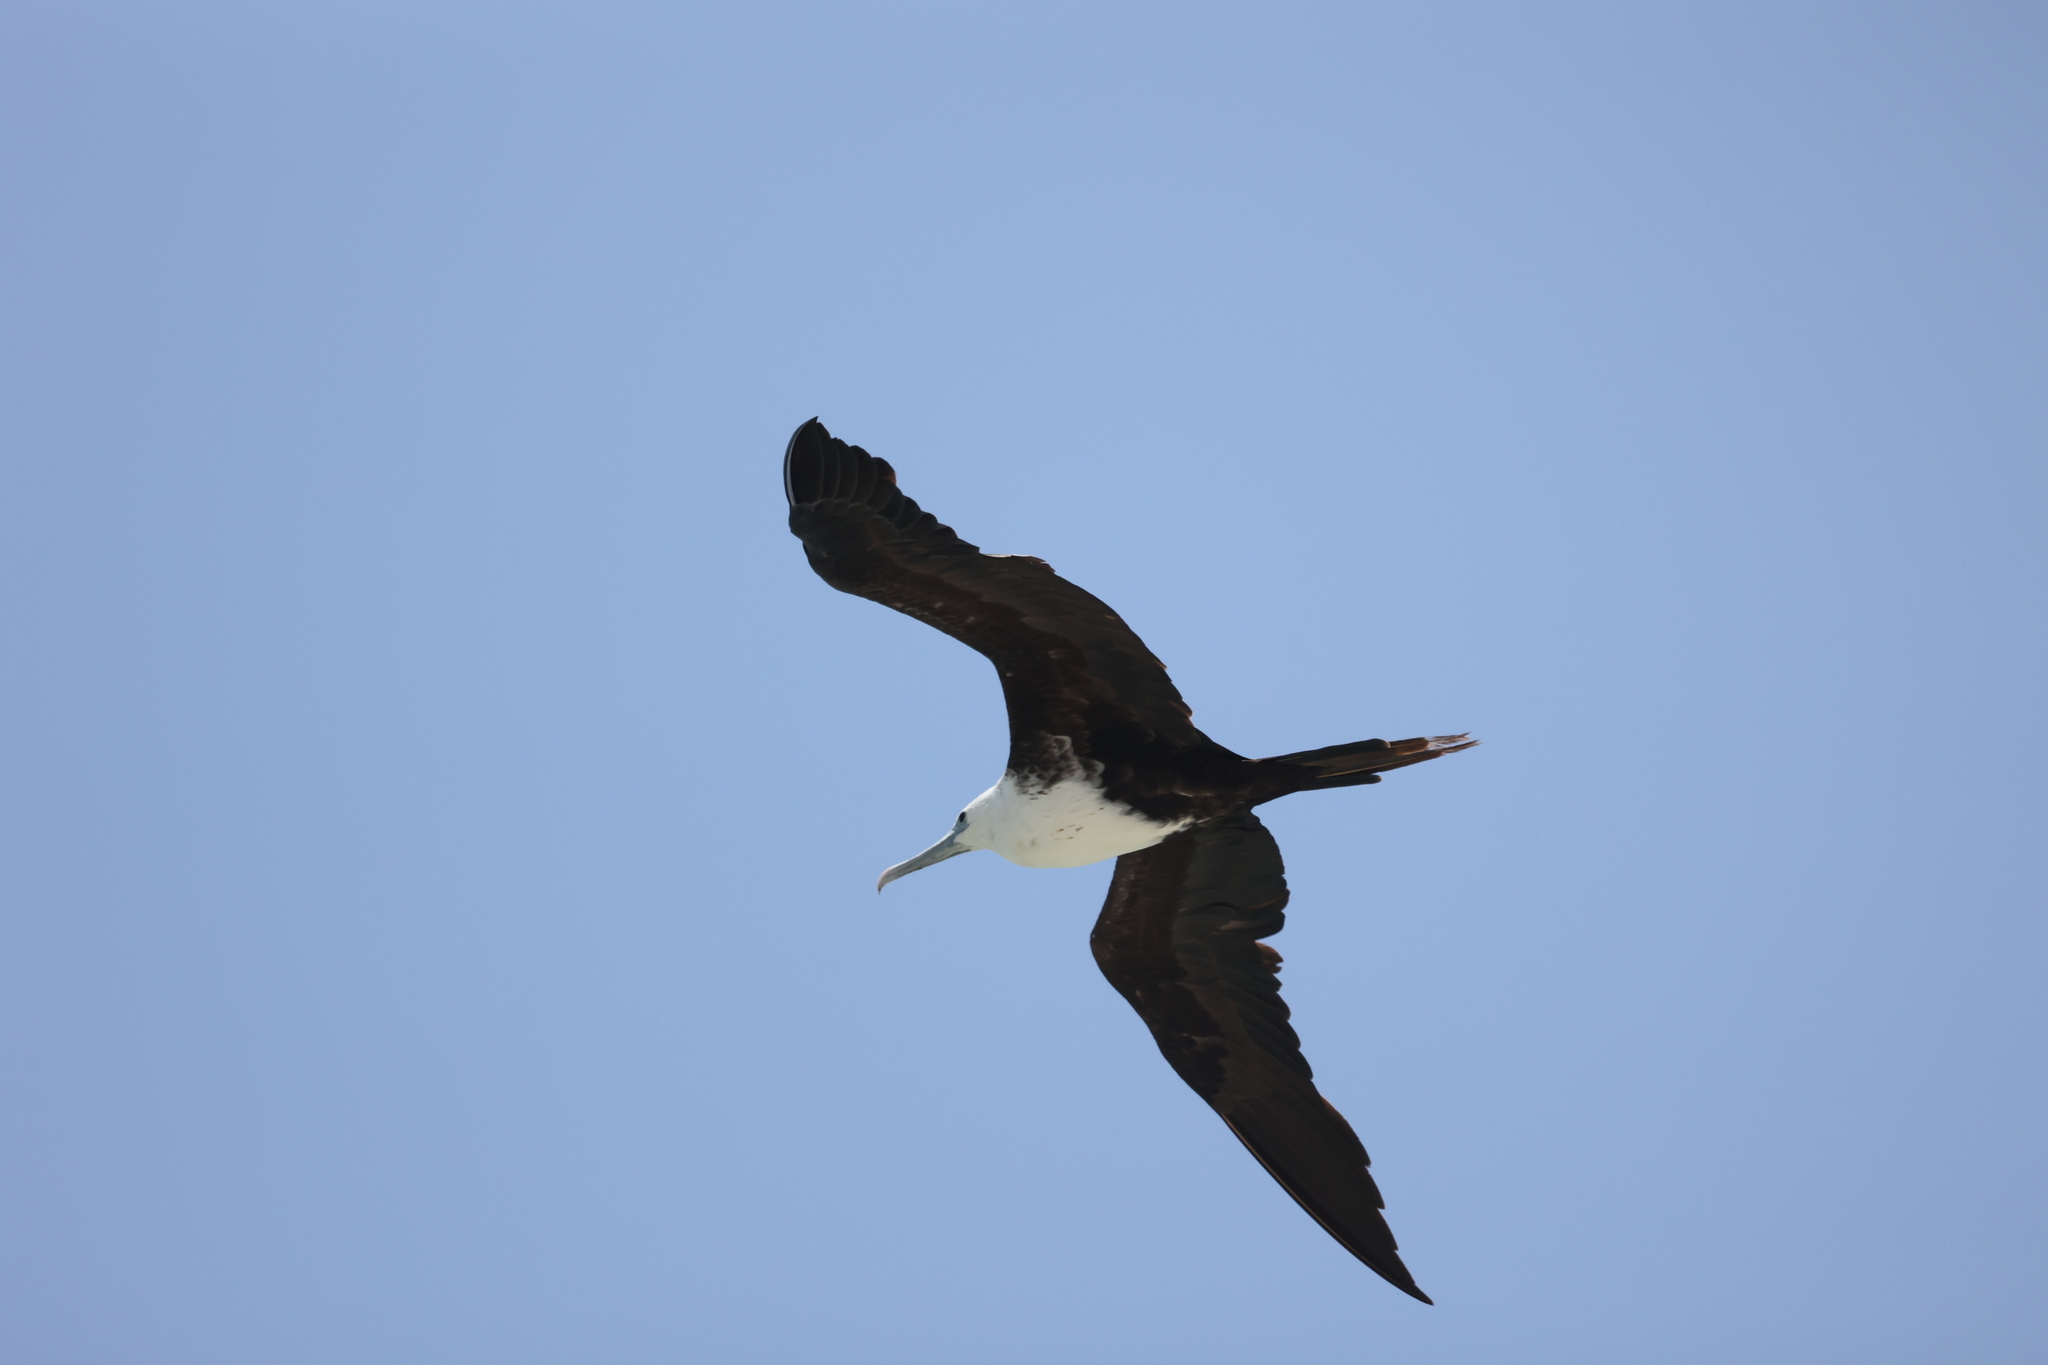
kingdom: Animalia
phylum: Chordata
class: Aves
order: Suliformes
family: Fregatidae
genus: Fregata
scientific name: Fregata magnificens
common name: Magnificent frigatebird
